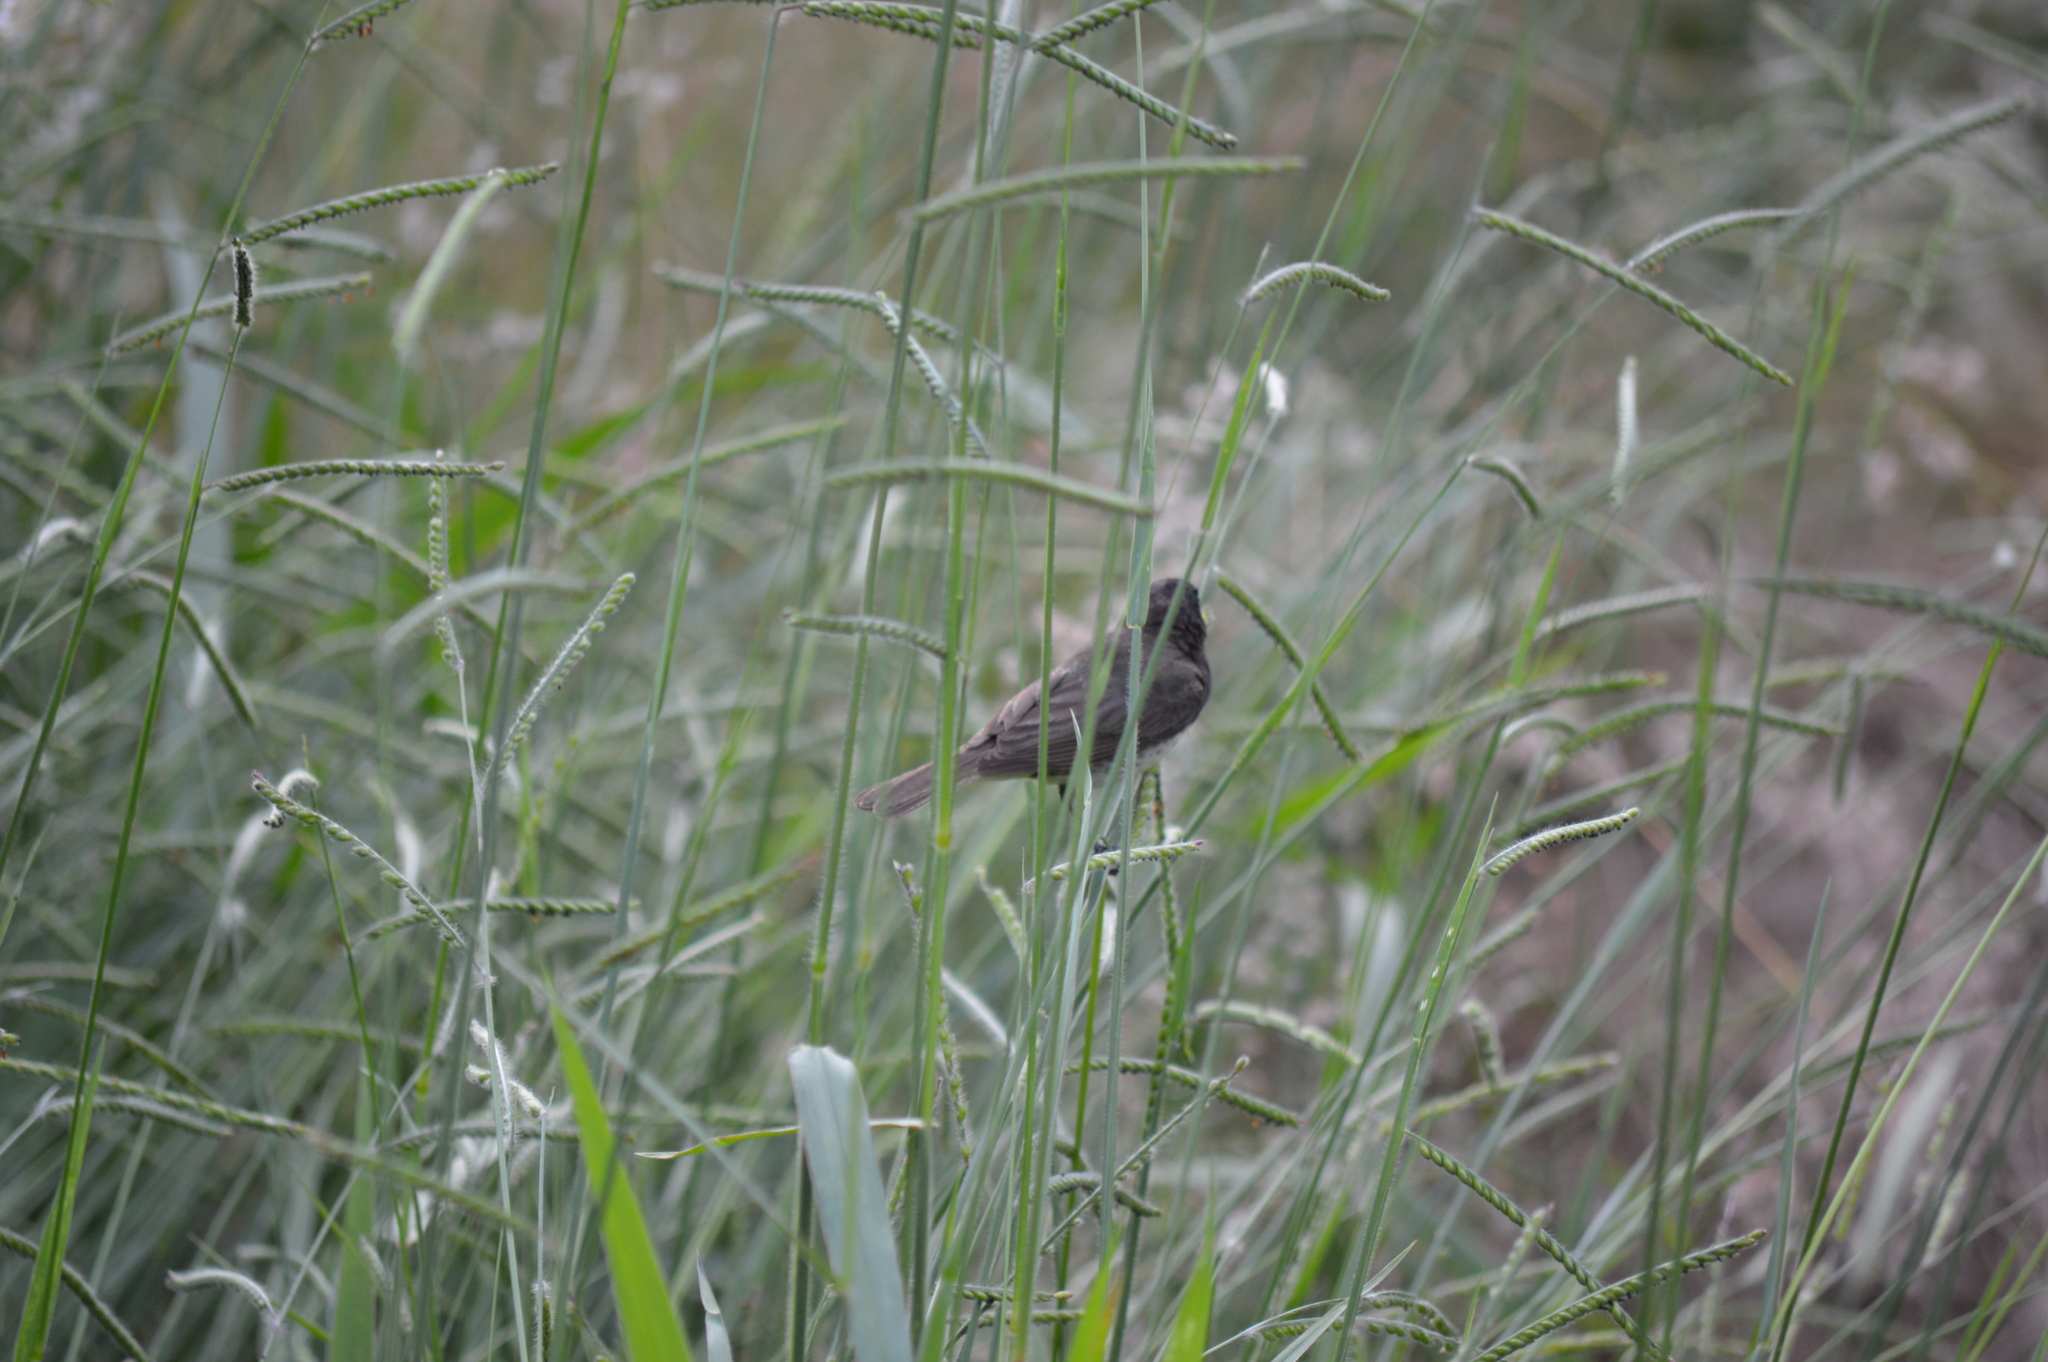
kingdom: Animalia
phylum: Chordata
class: Aves
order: Passeriformes
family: Thraupidae
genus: Sporophila
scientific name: Sporophila nigricollis
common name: Yellow-bellied seedeater
